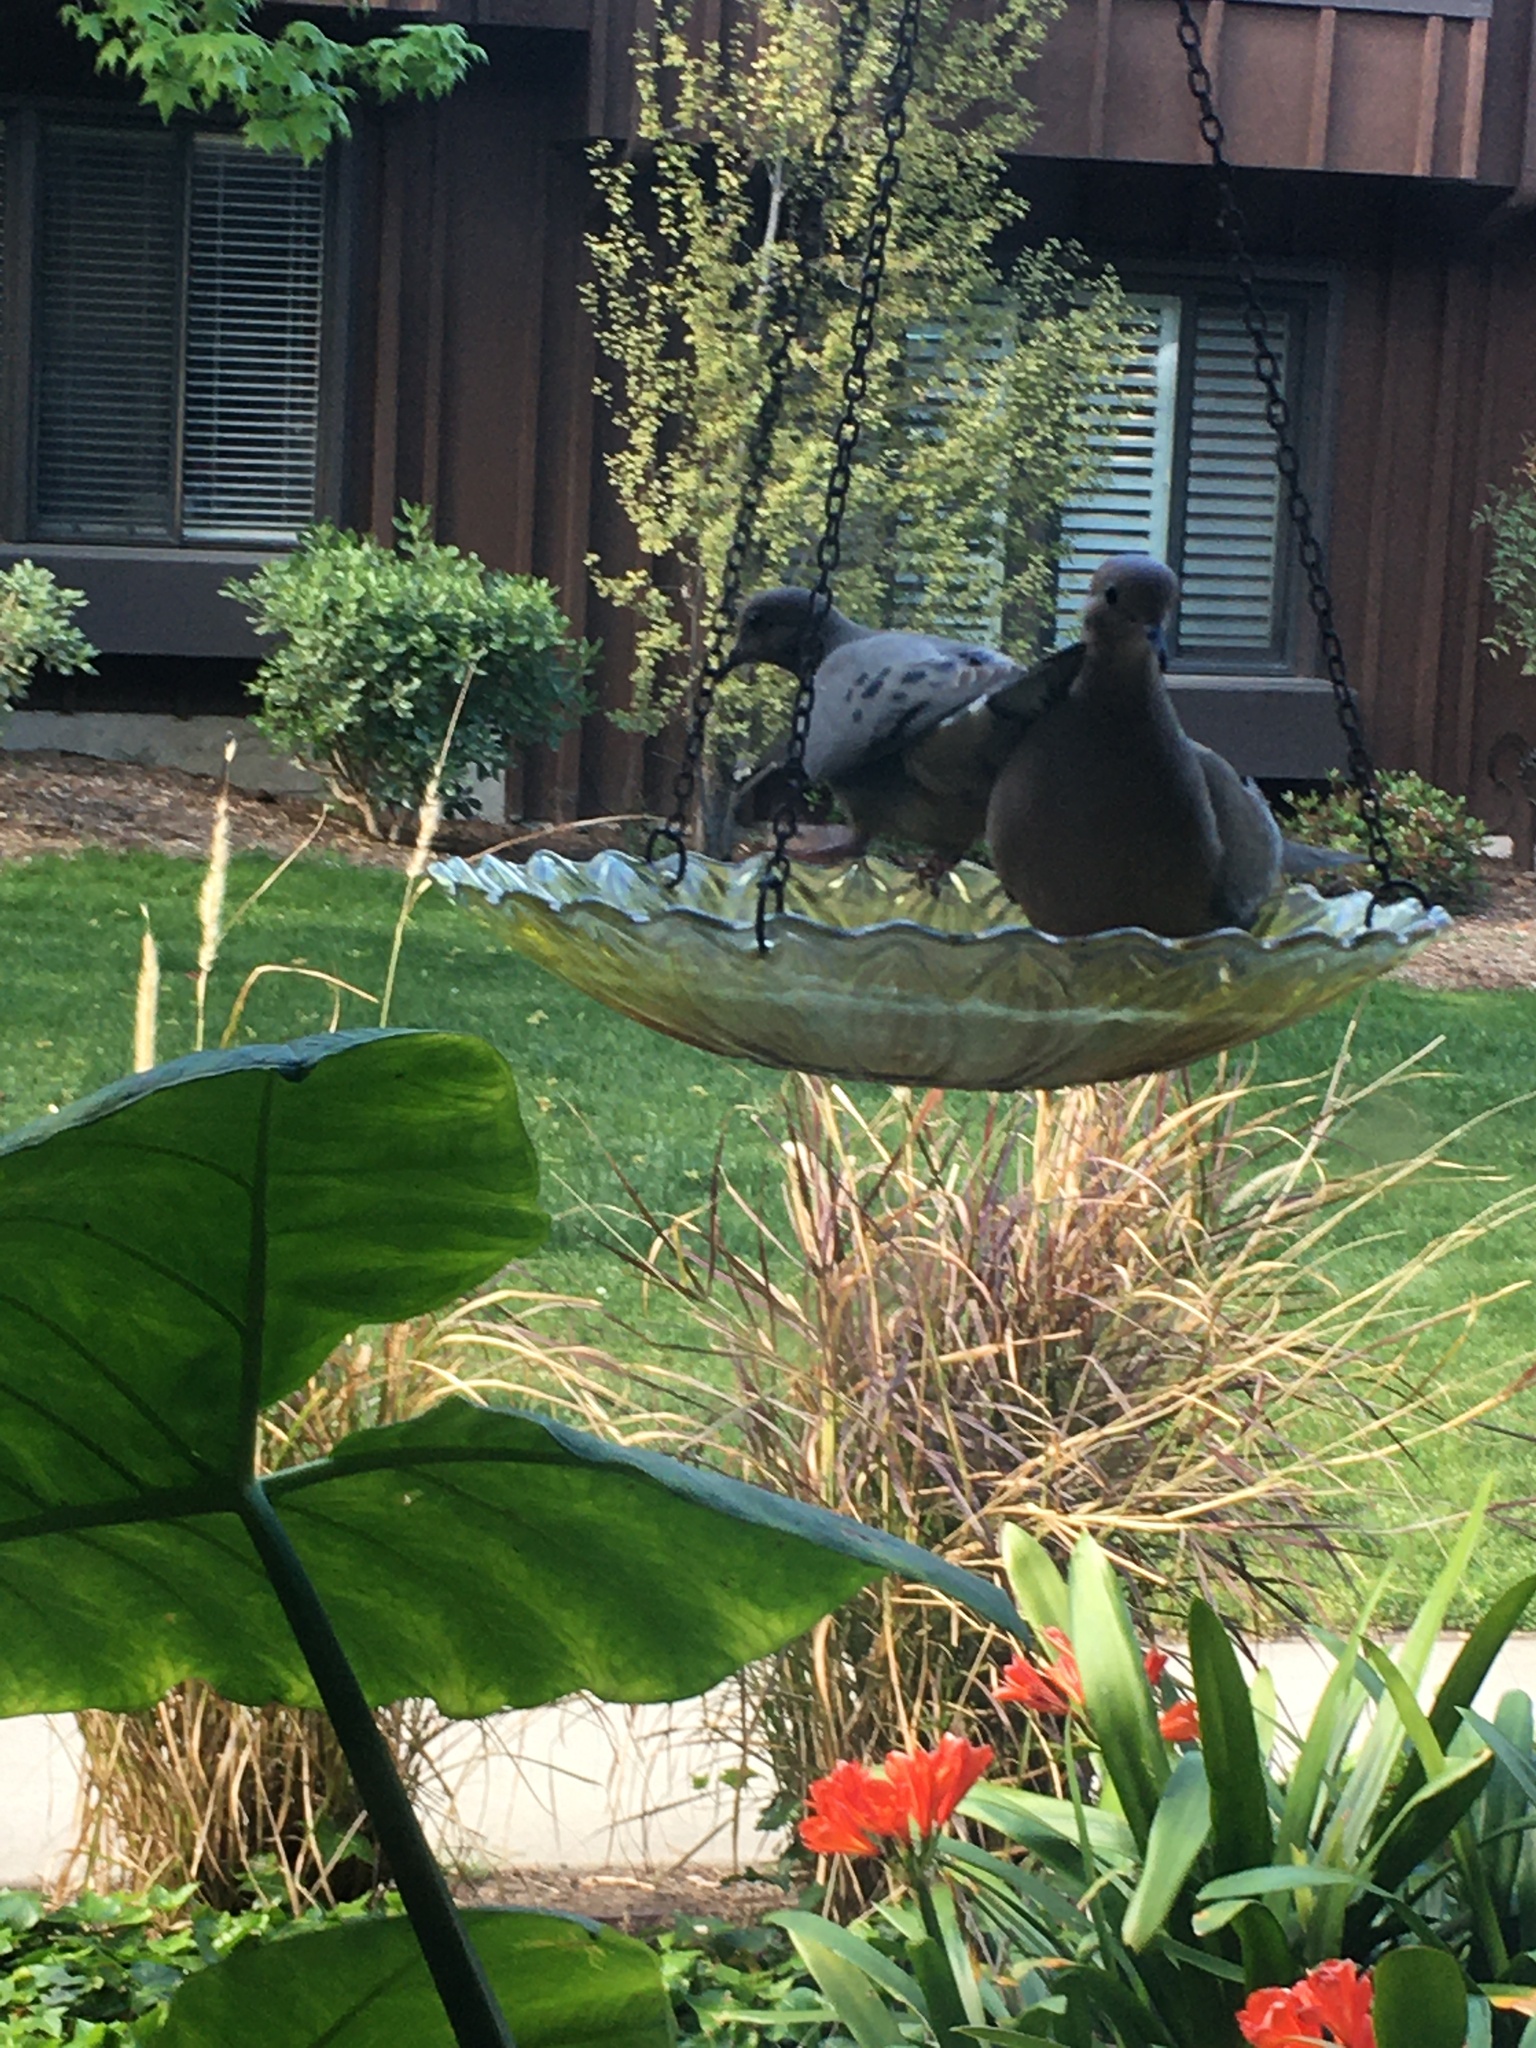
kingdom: Animalia
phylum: Chordata
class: Aves
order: Columbiformes
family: Columbidae
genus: Zenaida
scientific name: Zenaida macroura
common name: Mourning dove
